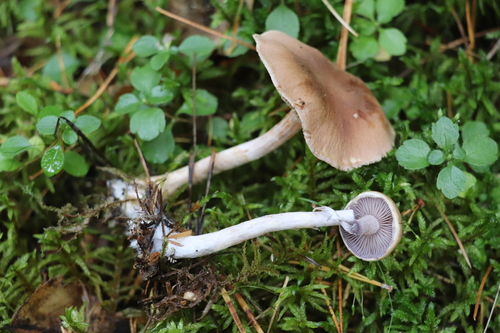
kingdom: Fungi
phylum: Basidiomycota
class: Agaricomycetes
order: Agaricales
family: Cortinariaceae
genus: Cortinarius
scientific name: Cortinarius
